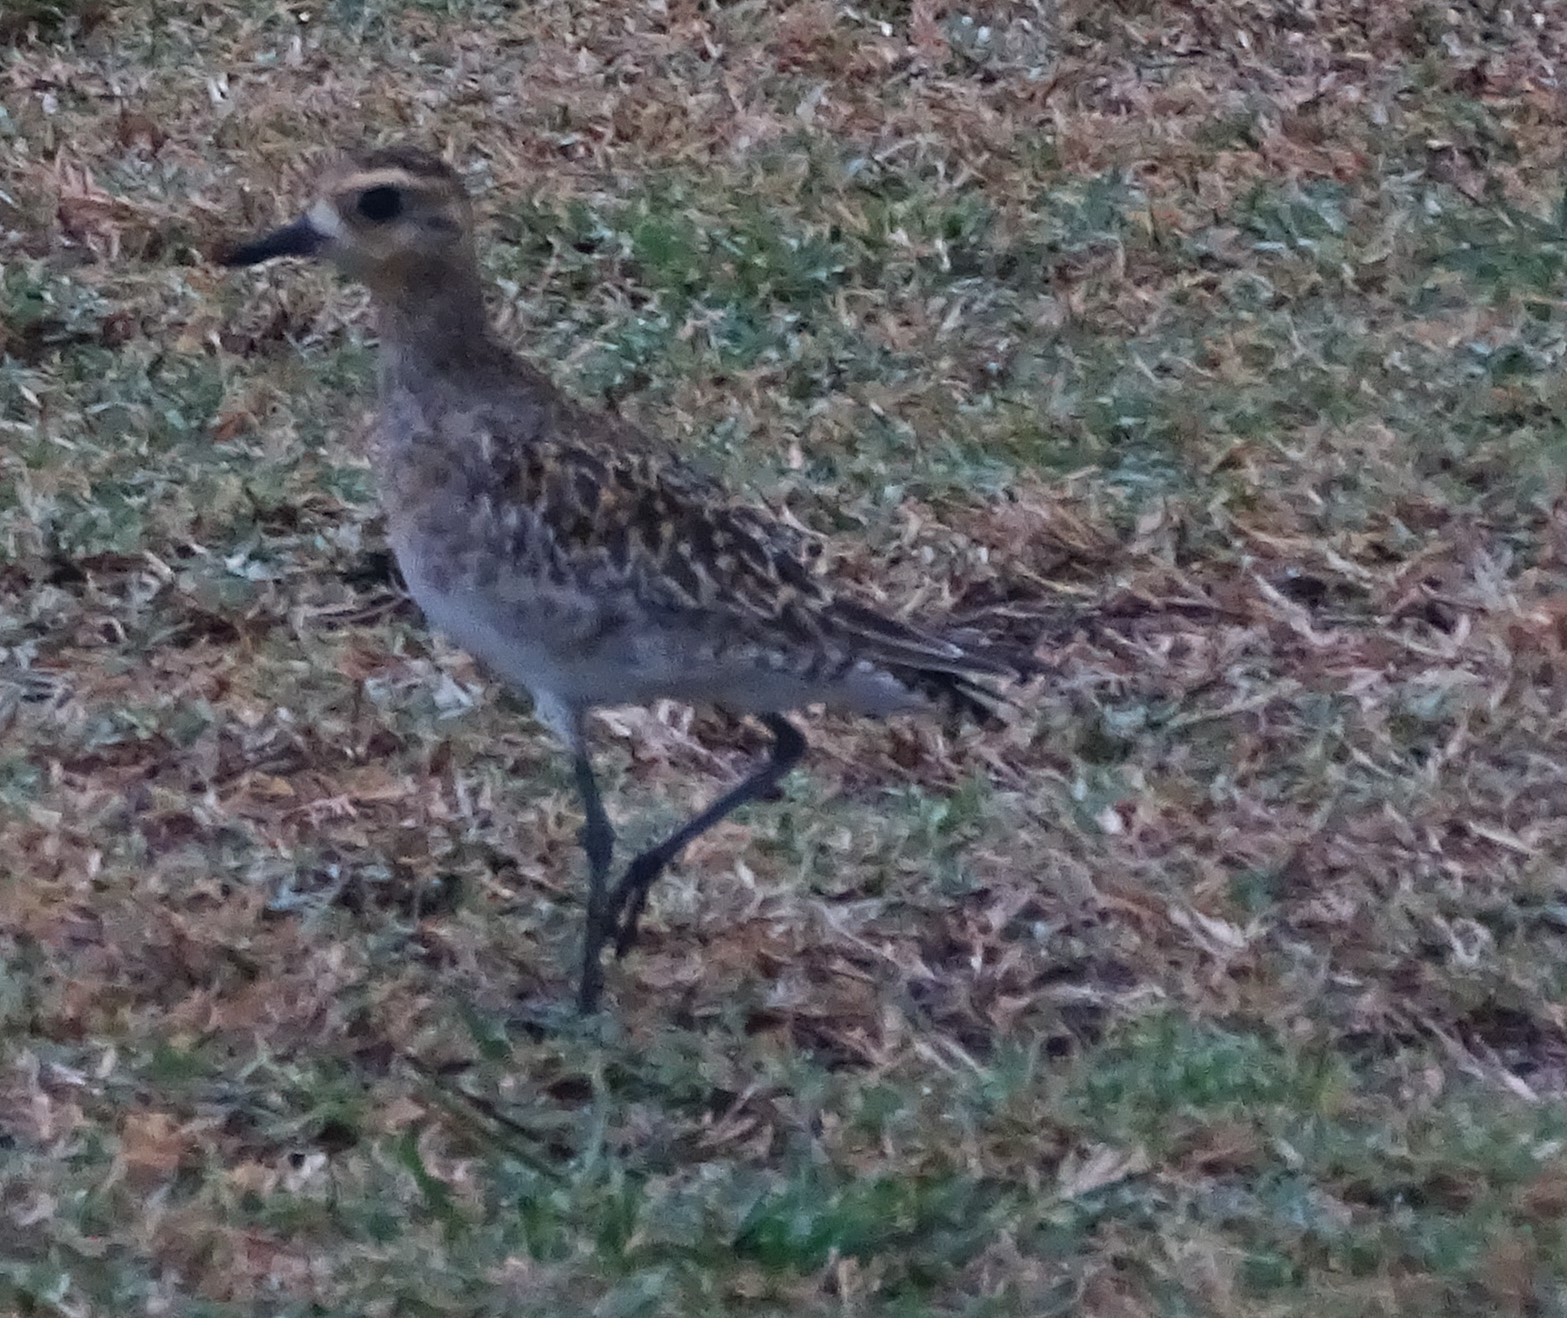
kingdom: Animalia
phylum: Chordata
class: Aves
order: Charadriiformes
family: Charadriidae
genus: Pluvialis
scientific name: Pluvialis fulva
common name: Pacific golden plover
